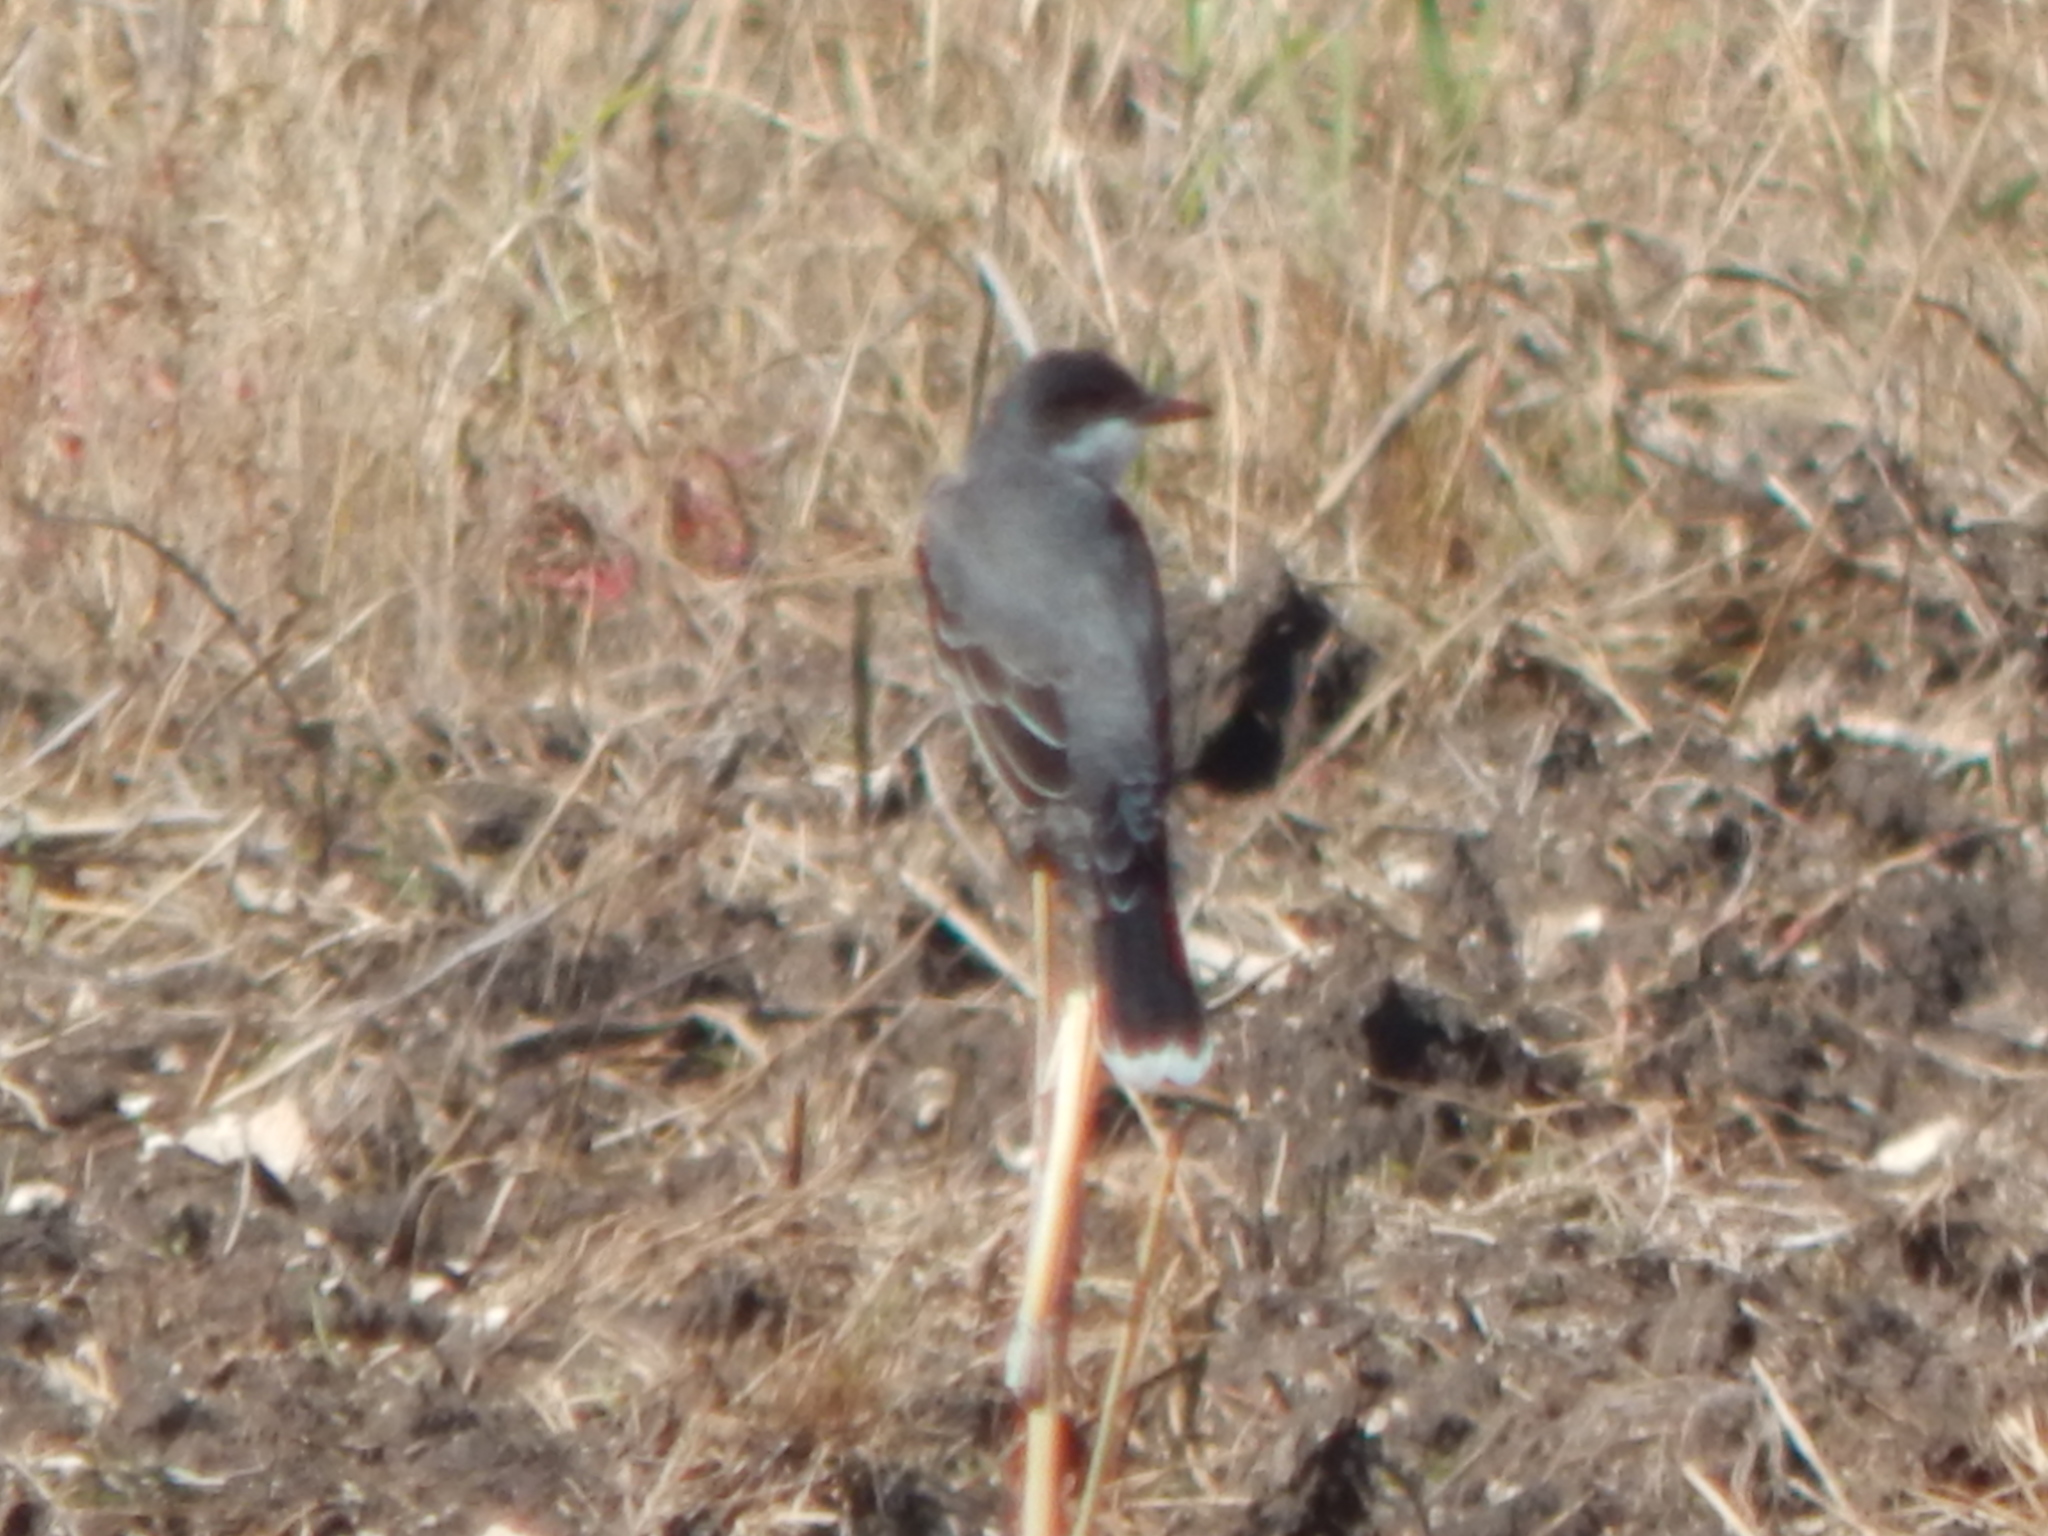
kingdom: Animalia
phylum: Chordata
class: Aves
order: Passeriformes
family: Tyrannidae
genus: Tyrannus
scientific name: Tyrannus tyrannus
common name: Eastern kingbird
